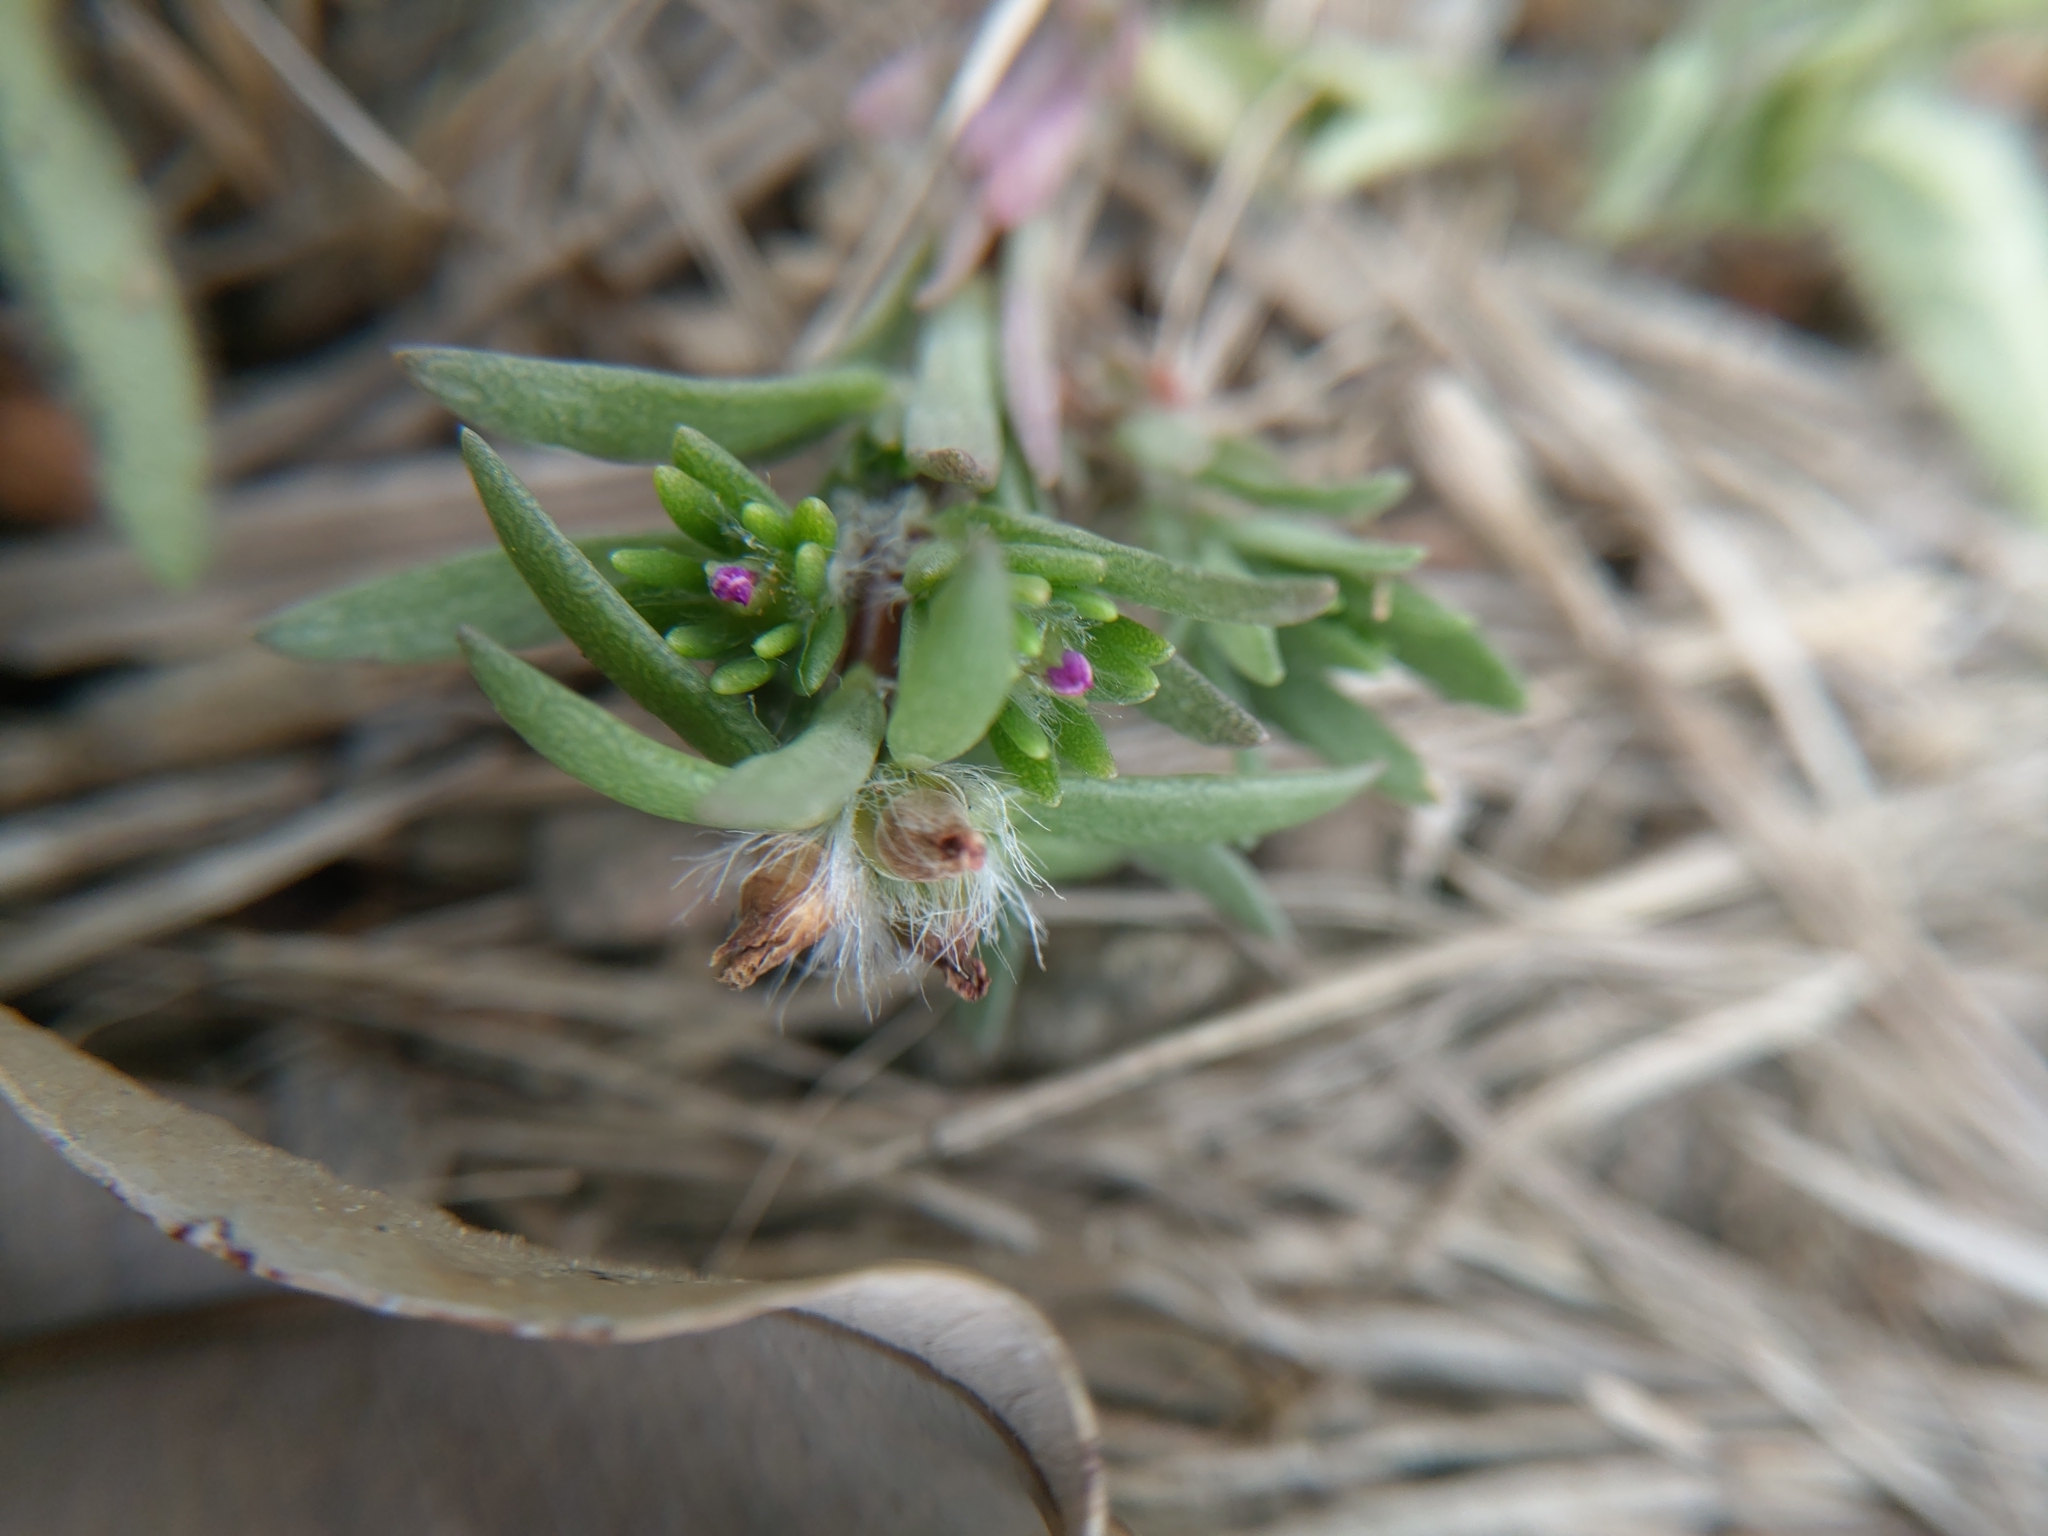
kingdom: Plantae
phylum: Tracheophyta
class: Magnoliopsida
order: Caryophyllales
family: Portulacaceae
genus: Portulaca
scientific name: Portulaca pilosa
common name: Kiss me quick
